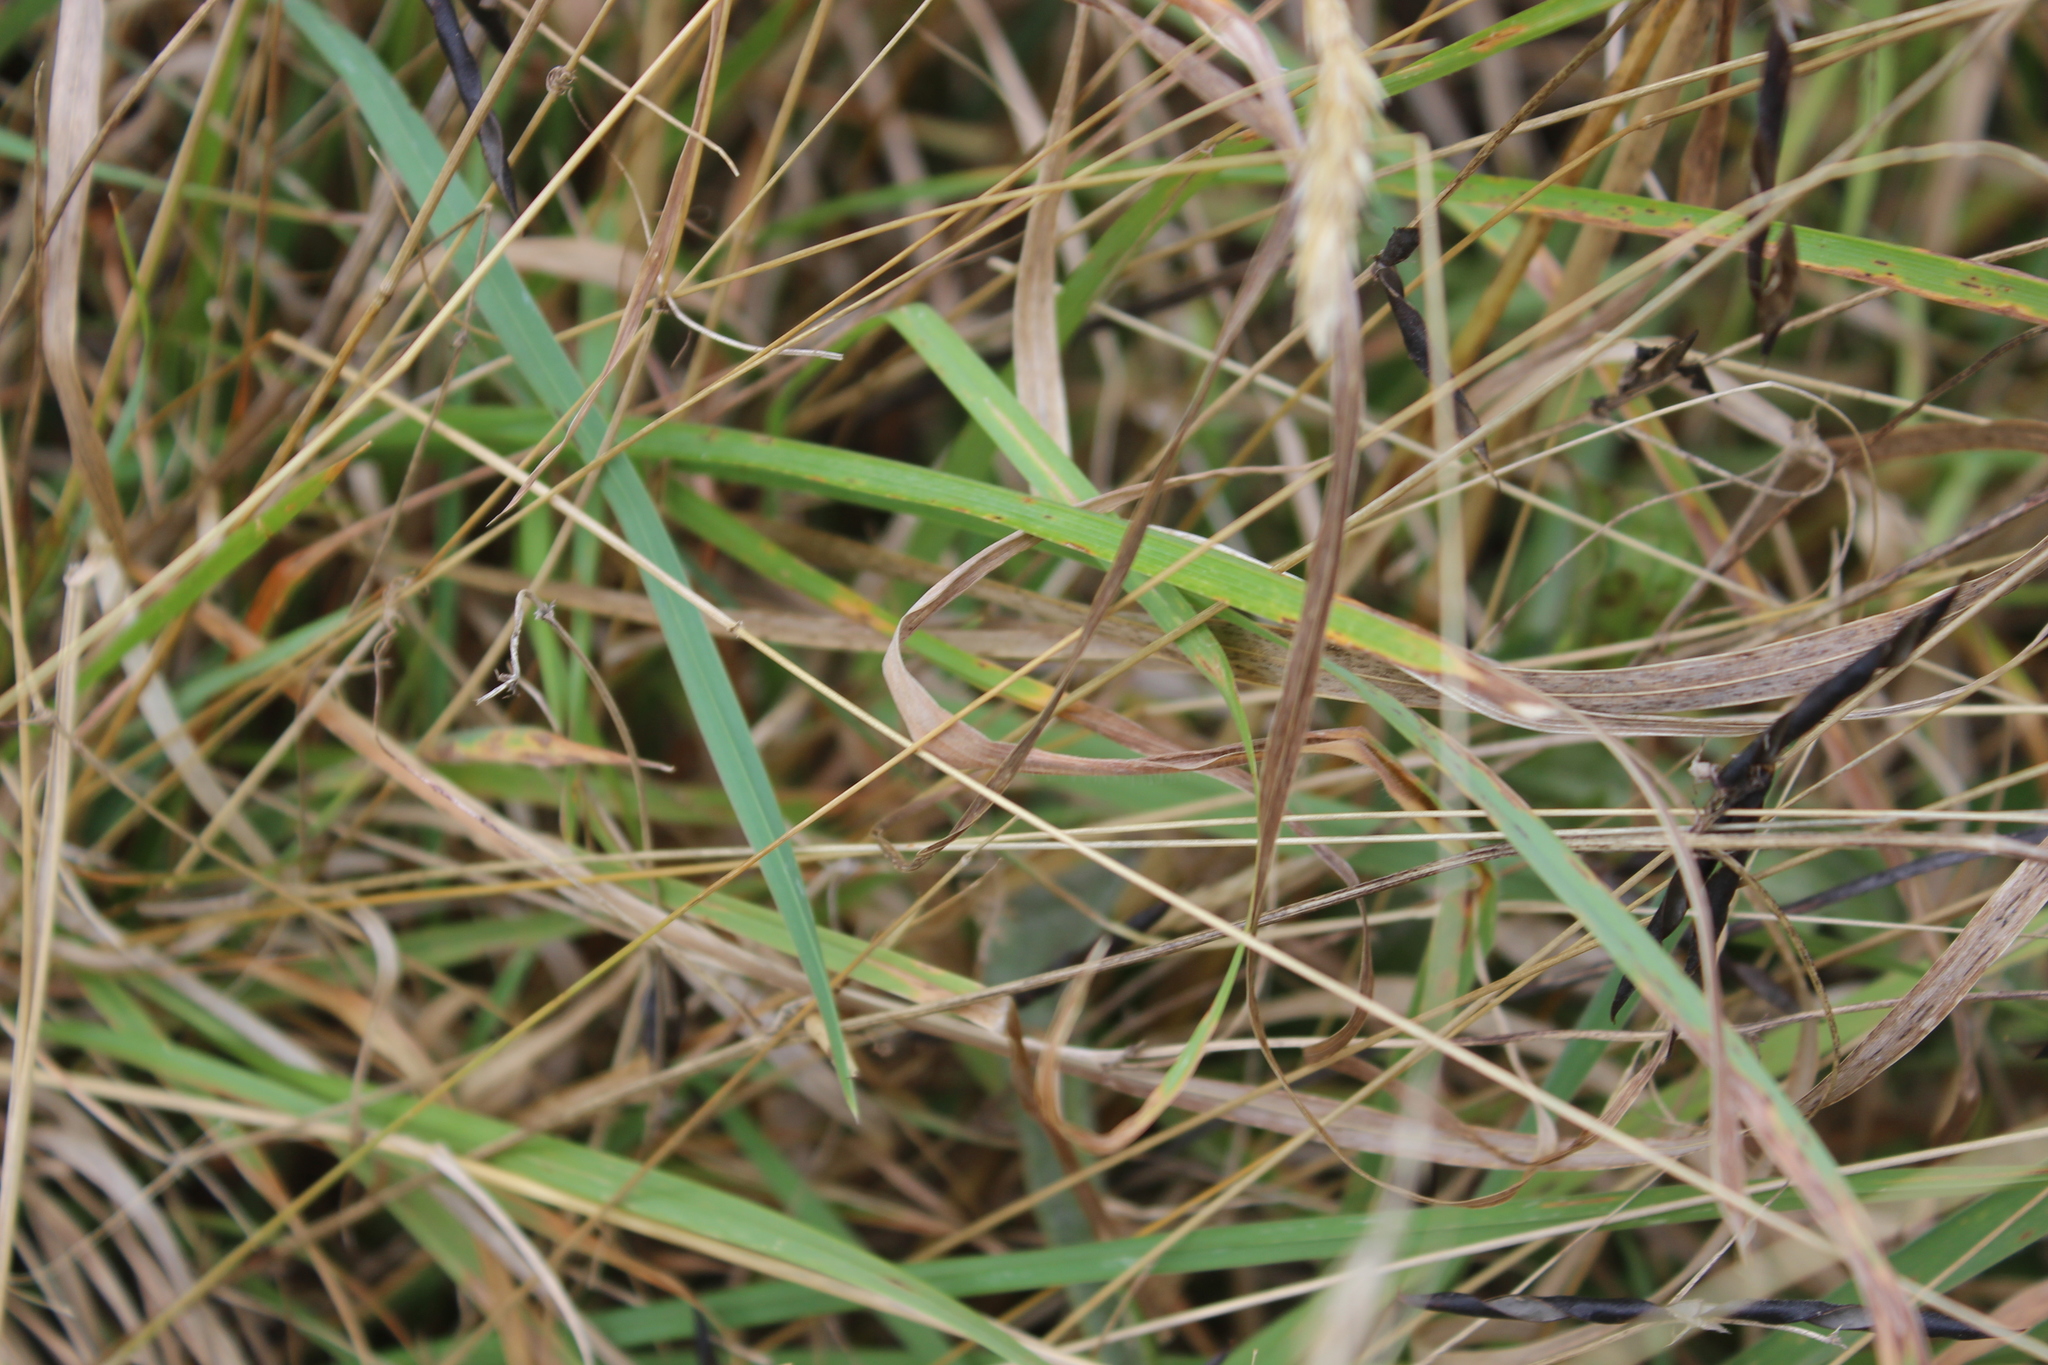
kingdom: Plantae
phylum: Tracheophyta
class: Liliopsida
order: Poales
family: Poaceae
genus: Anthoxanthum
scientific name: Anthoxanthum odoratum
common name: Sweet vernalgrass
